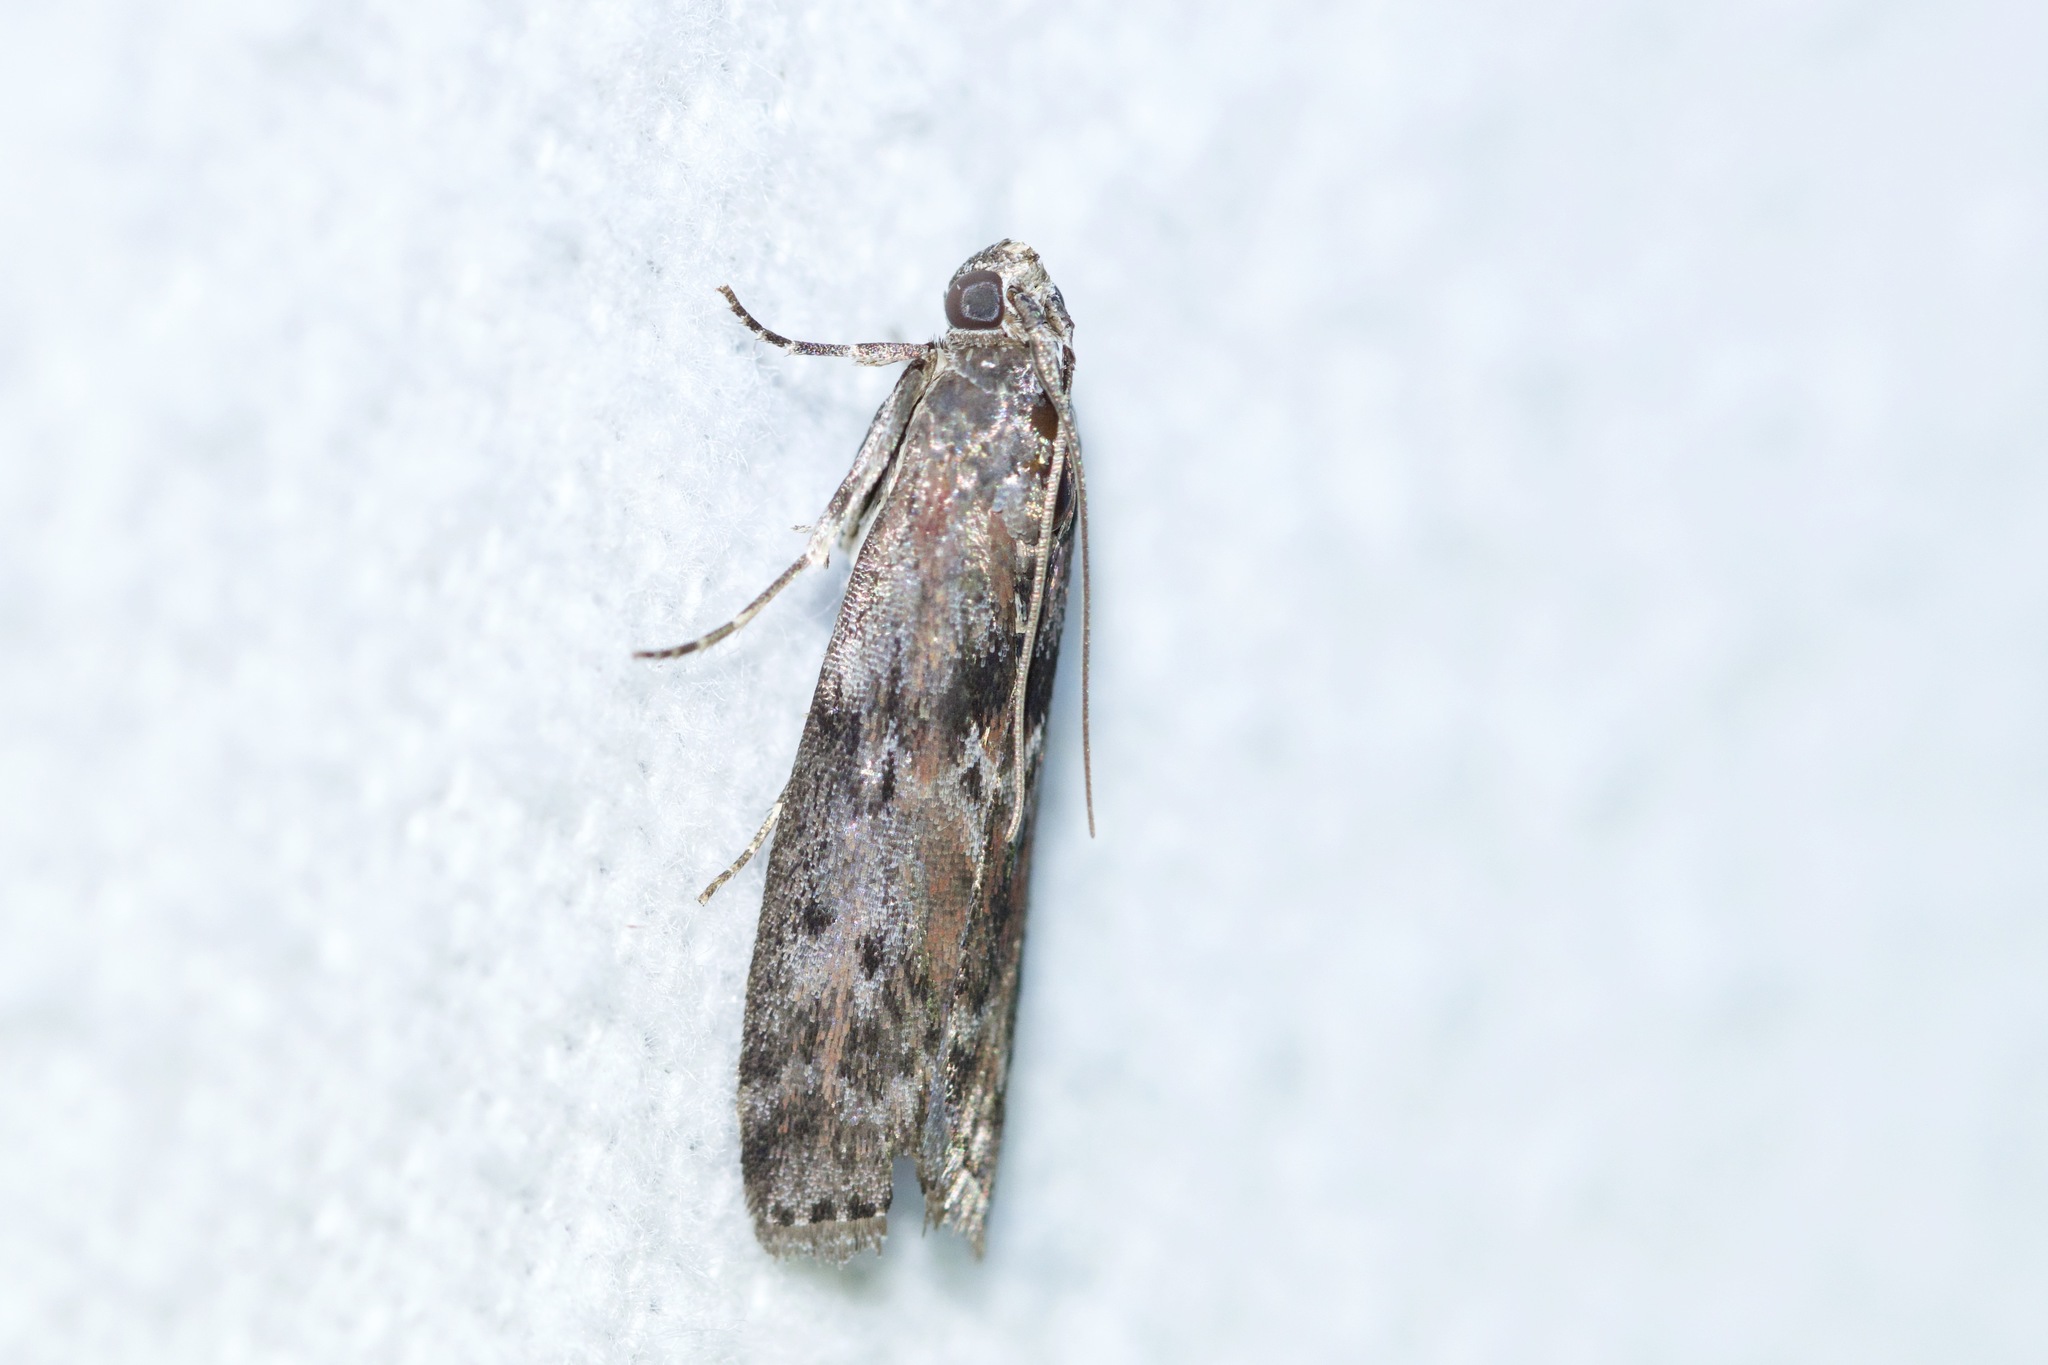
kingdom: Animalia
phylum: Arthropoda
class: Insecta
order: Lepidoptera
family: Pyralidae
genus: Sciota
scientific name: Sciota virgatella
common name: Black-spotted leafroller moth
